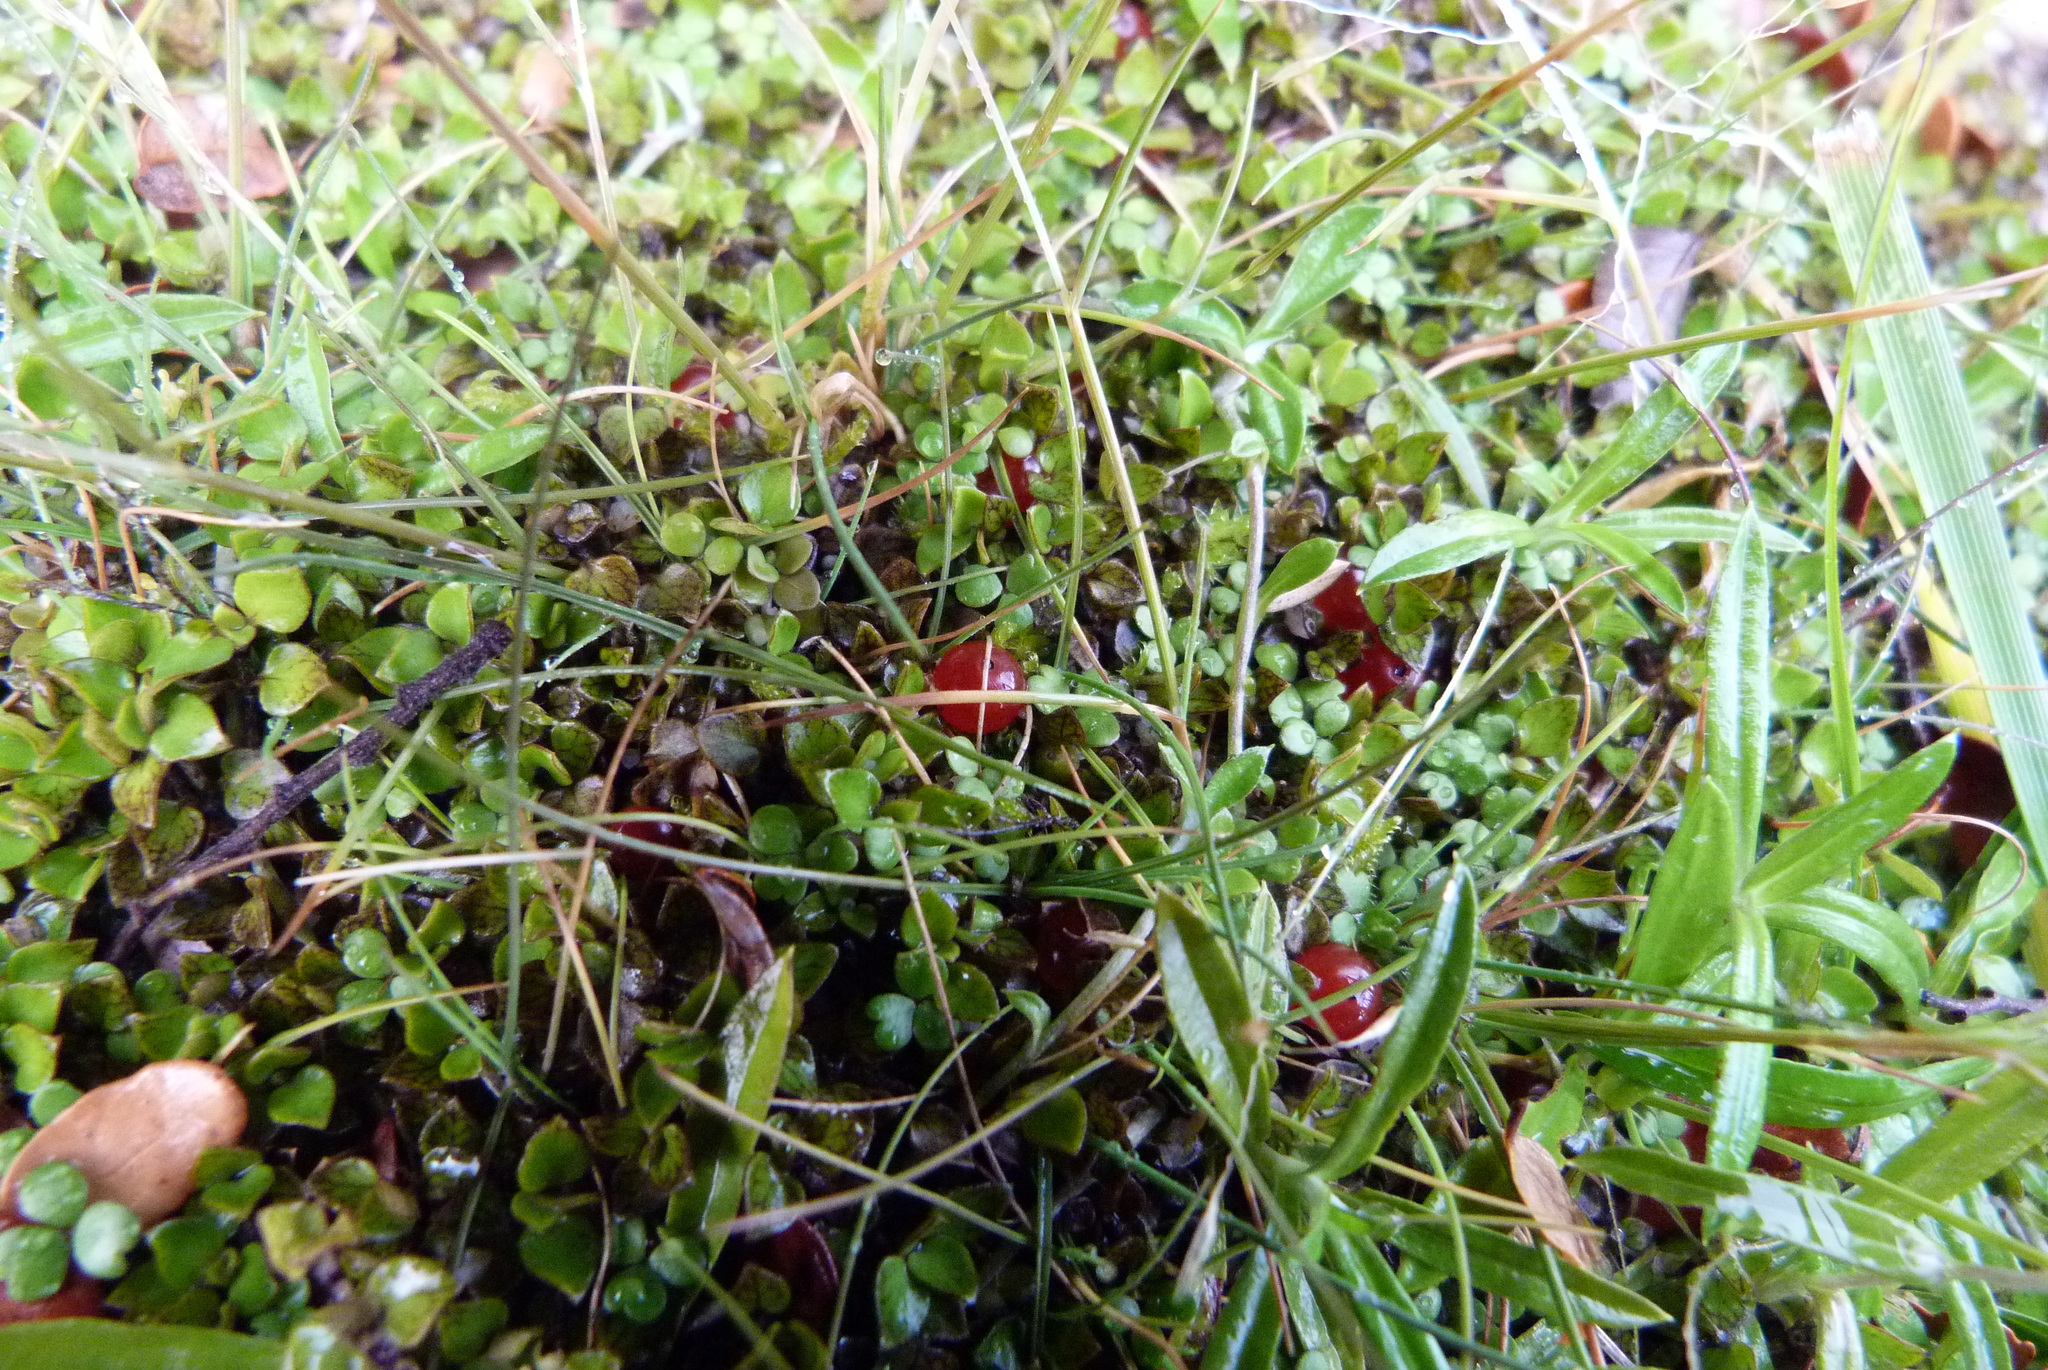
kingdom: Plantae
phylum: Tracheophyta
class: Magnoliopsida
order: Gentianales
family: Rubiaceae
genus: Nertera
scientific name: Nertera granadensis
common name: Beadplant
